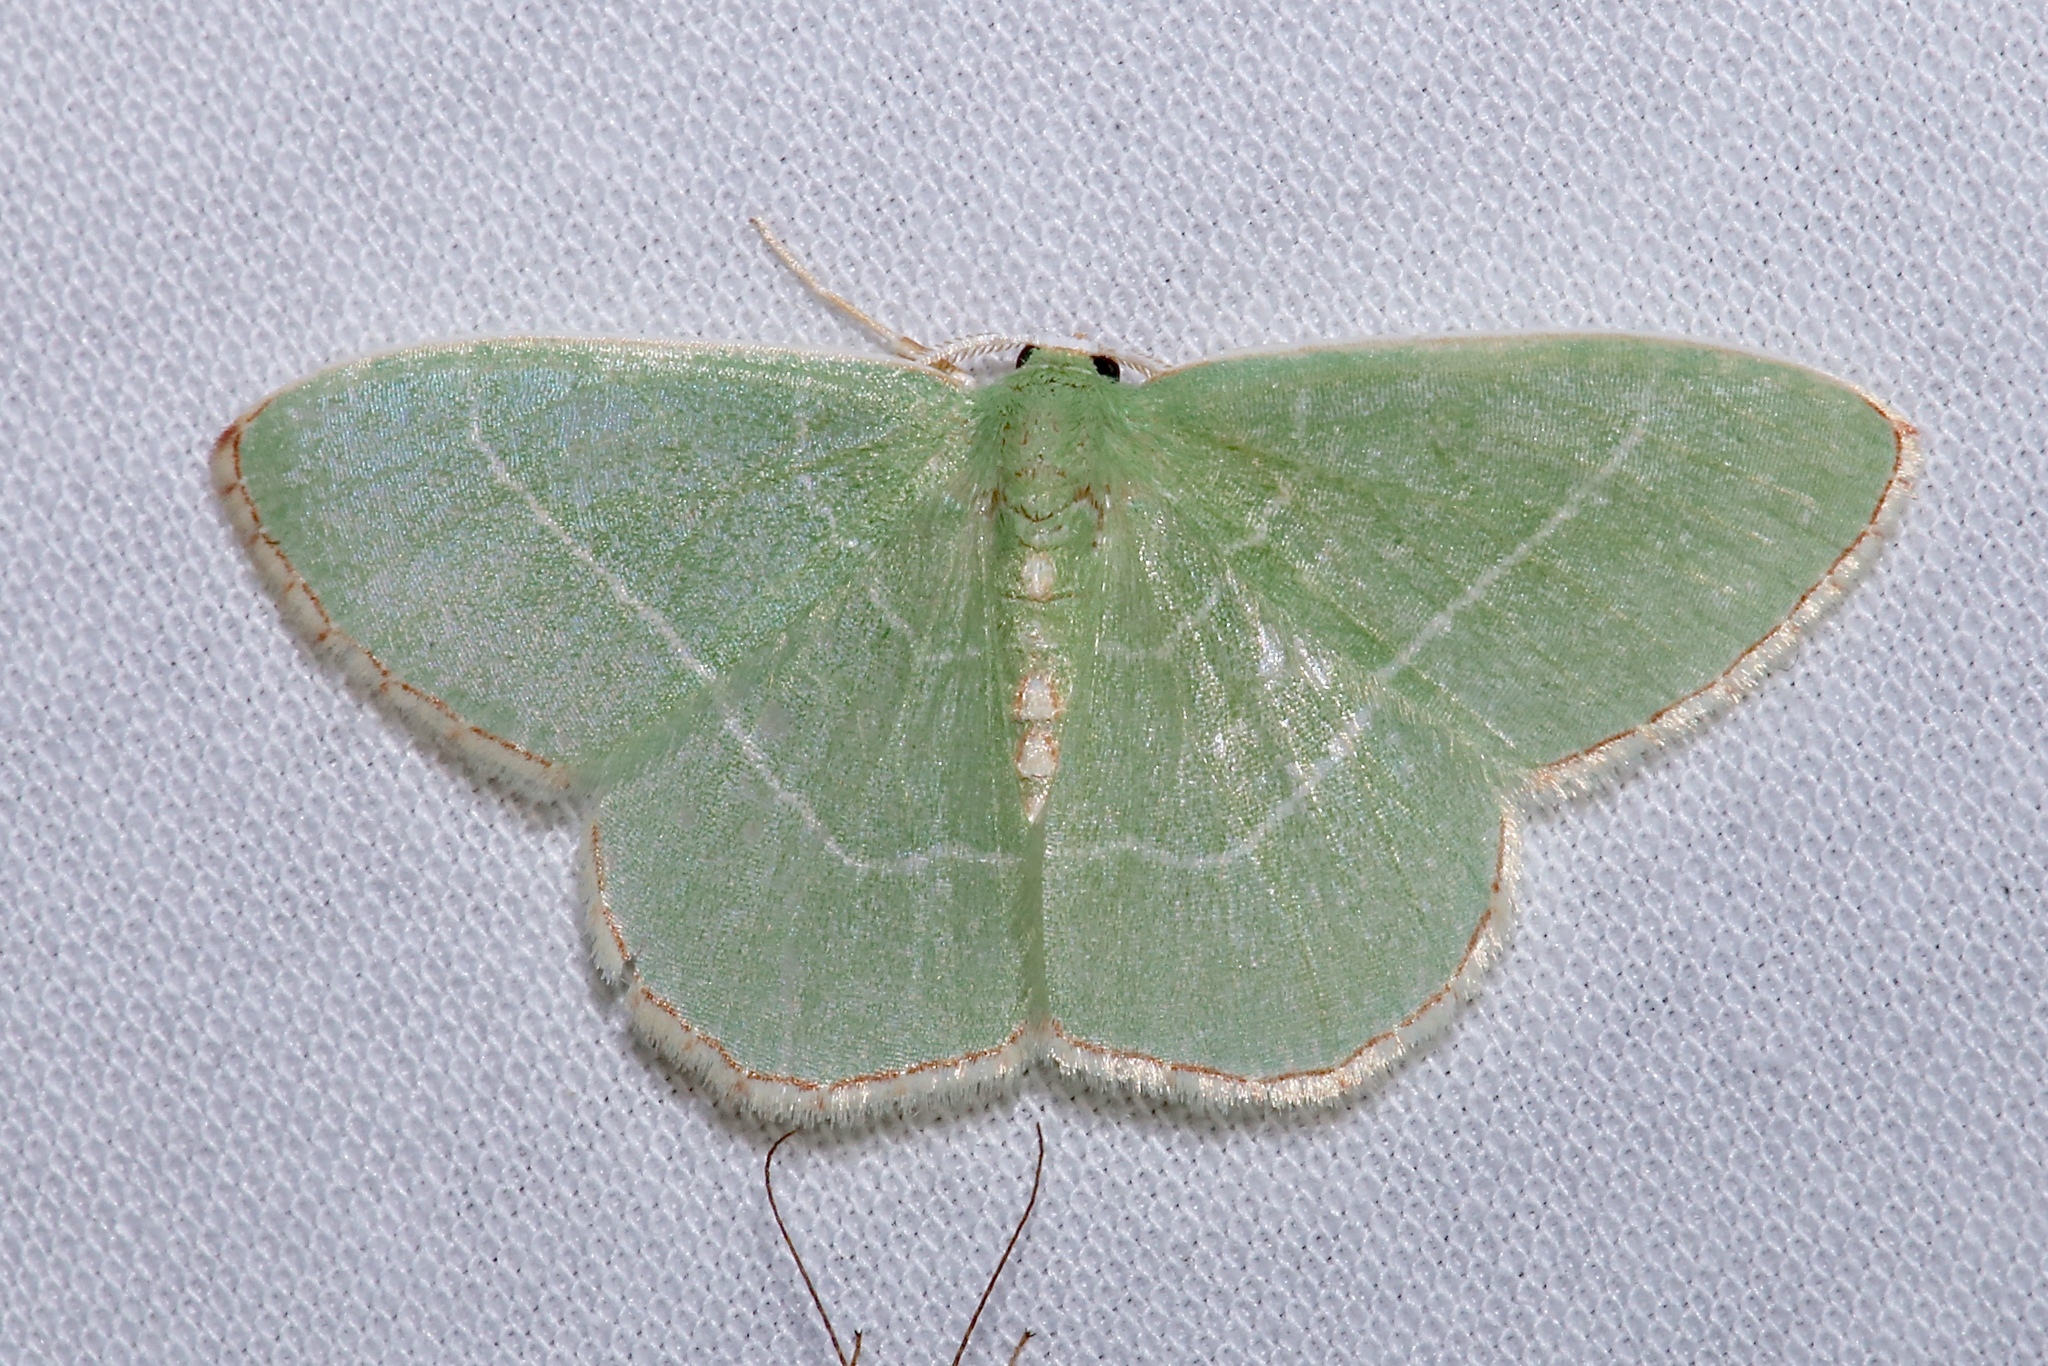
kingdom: Animalia
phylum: Arthropoda
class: Insecta
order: Lepidoptera
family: Geometridae
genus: Nemoria
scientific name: Nemoria bistriaria
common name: Red-fringed emerald
